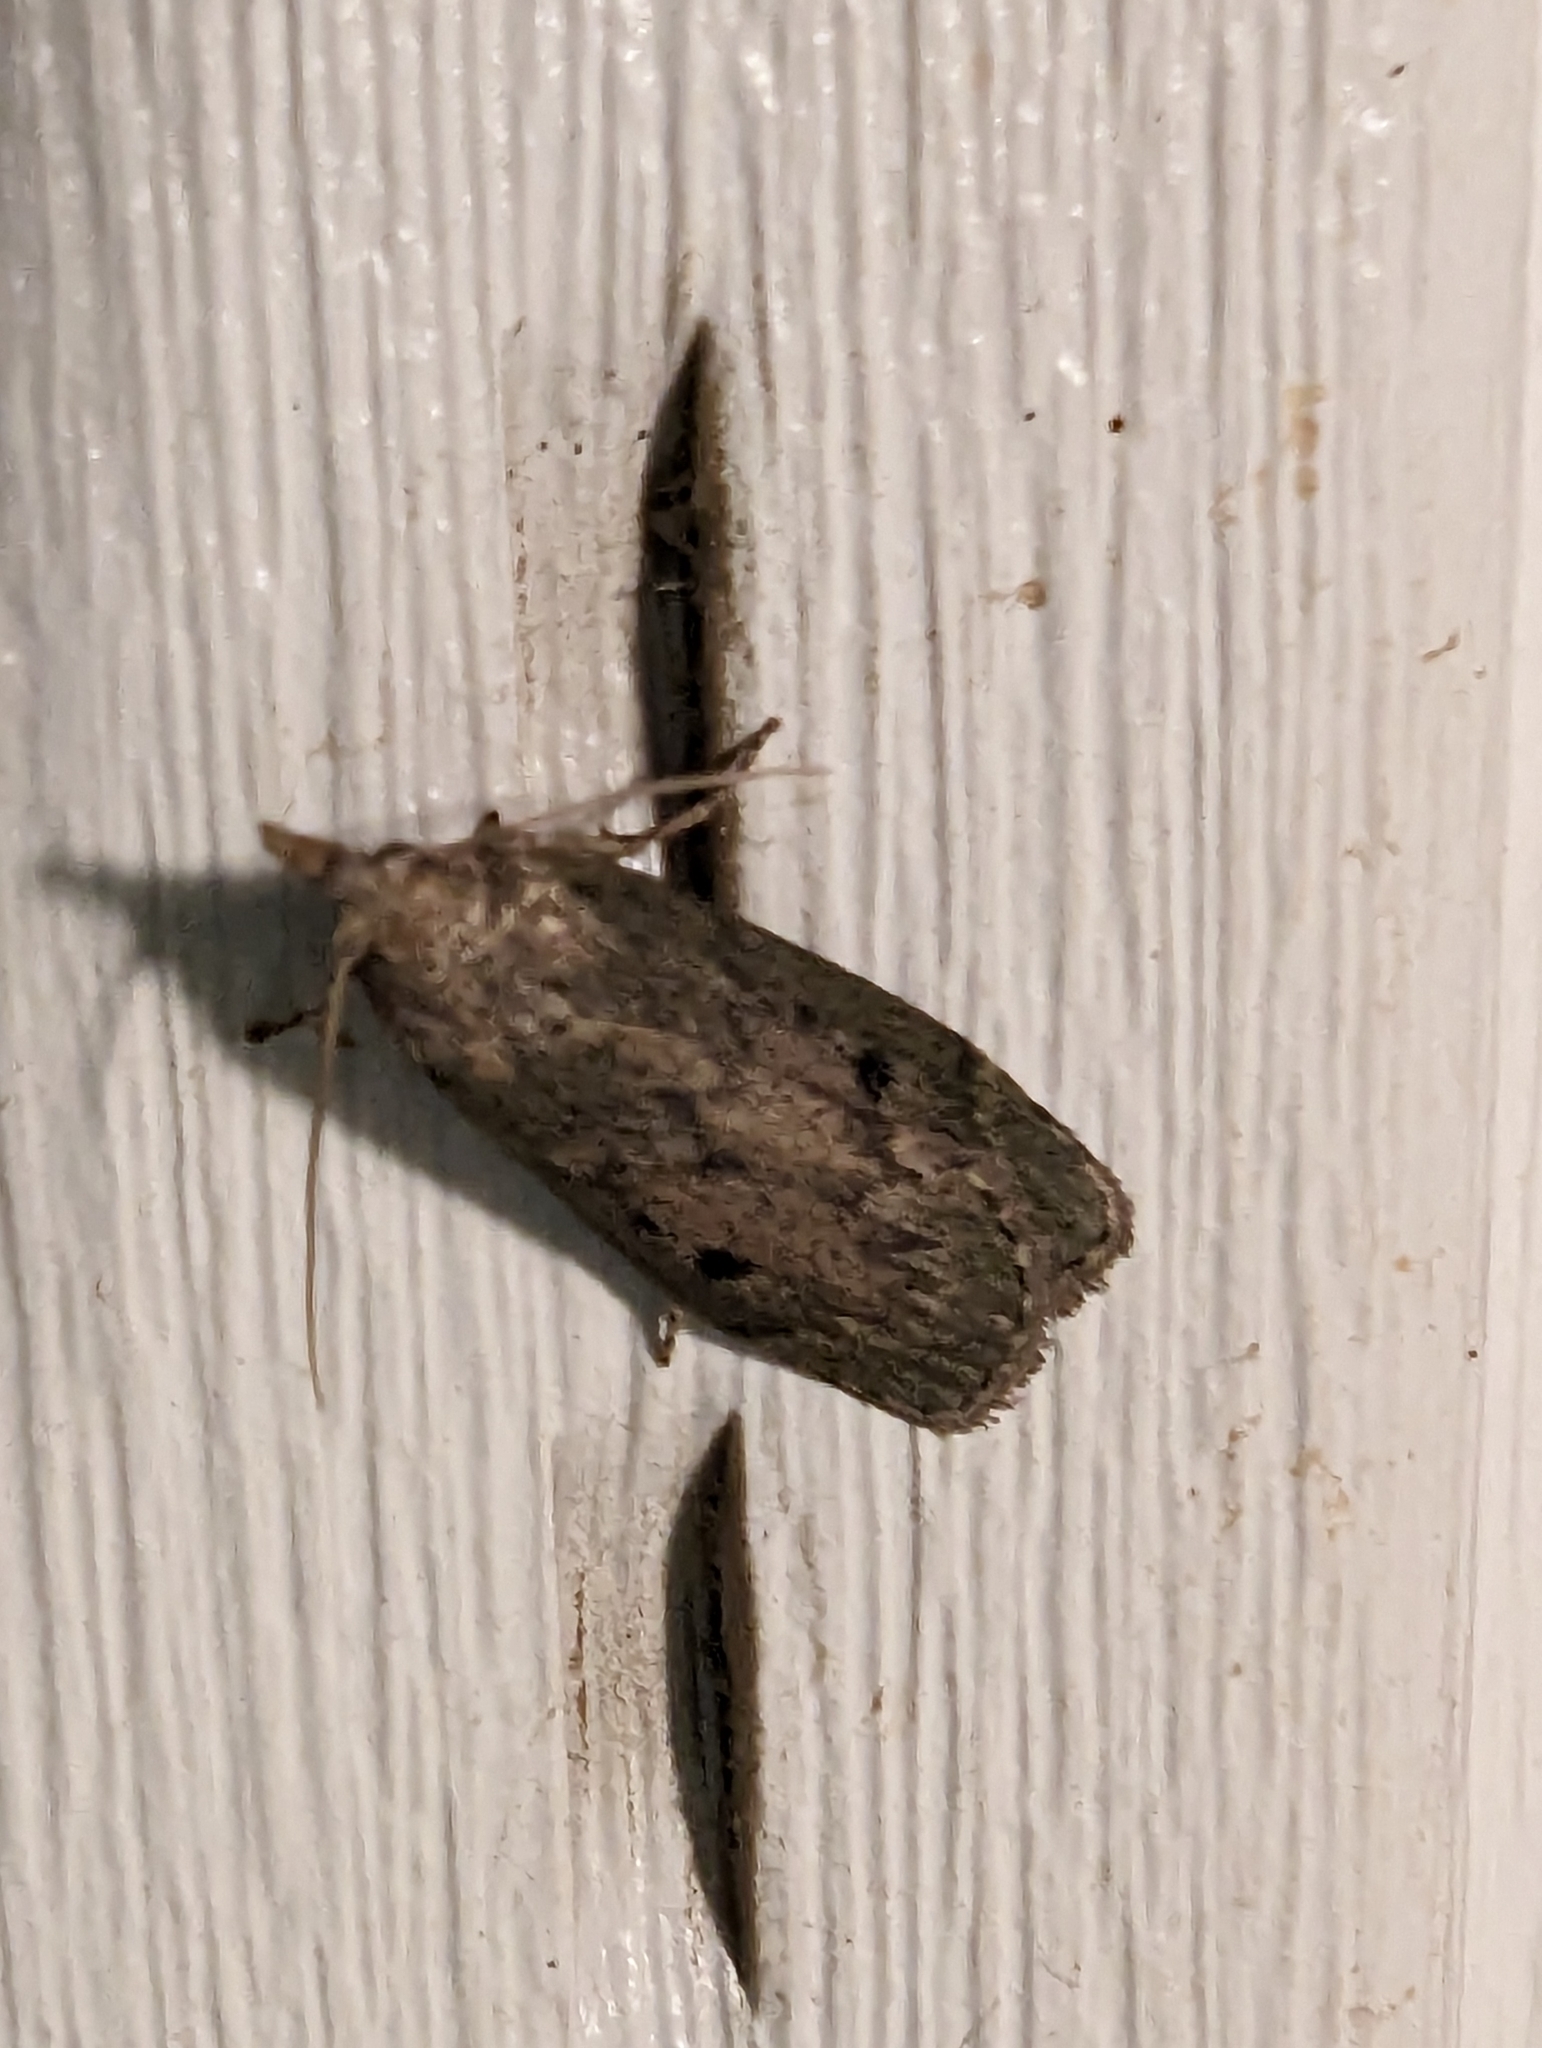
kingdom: Animalia
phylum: Arthropoda
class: Insecta
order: Lepidoptera
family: Pyralidae
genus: Aphomia
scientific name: Aphomia sociella
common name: Bee moth
